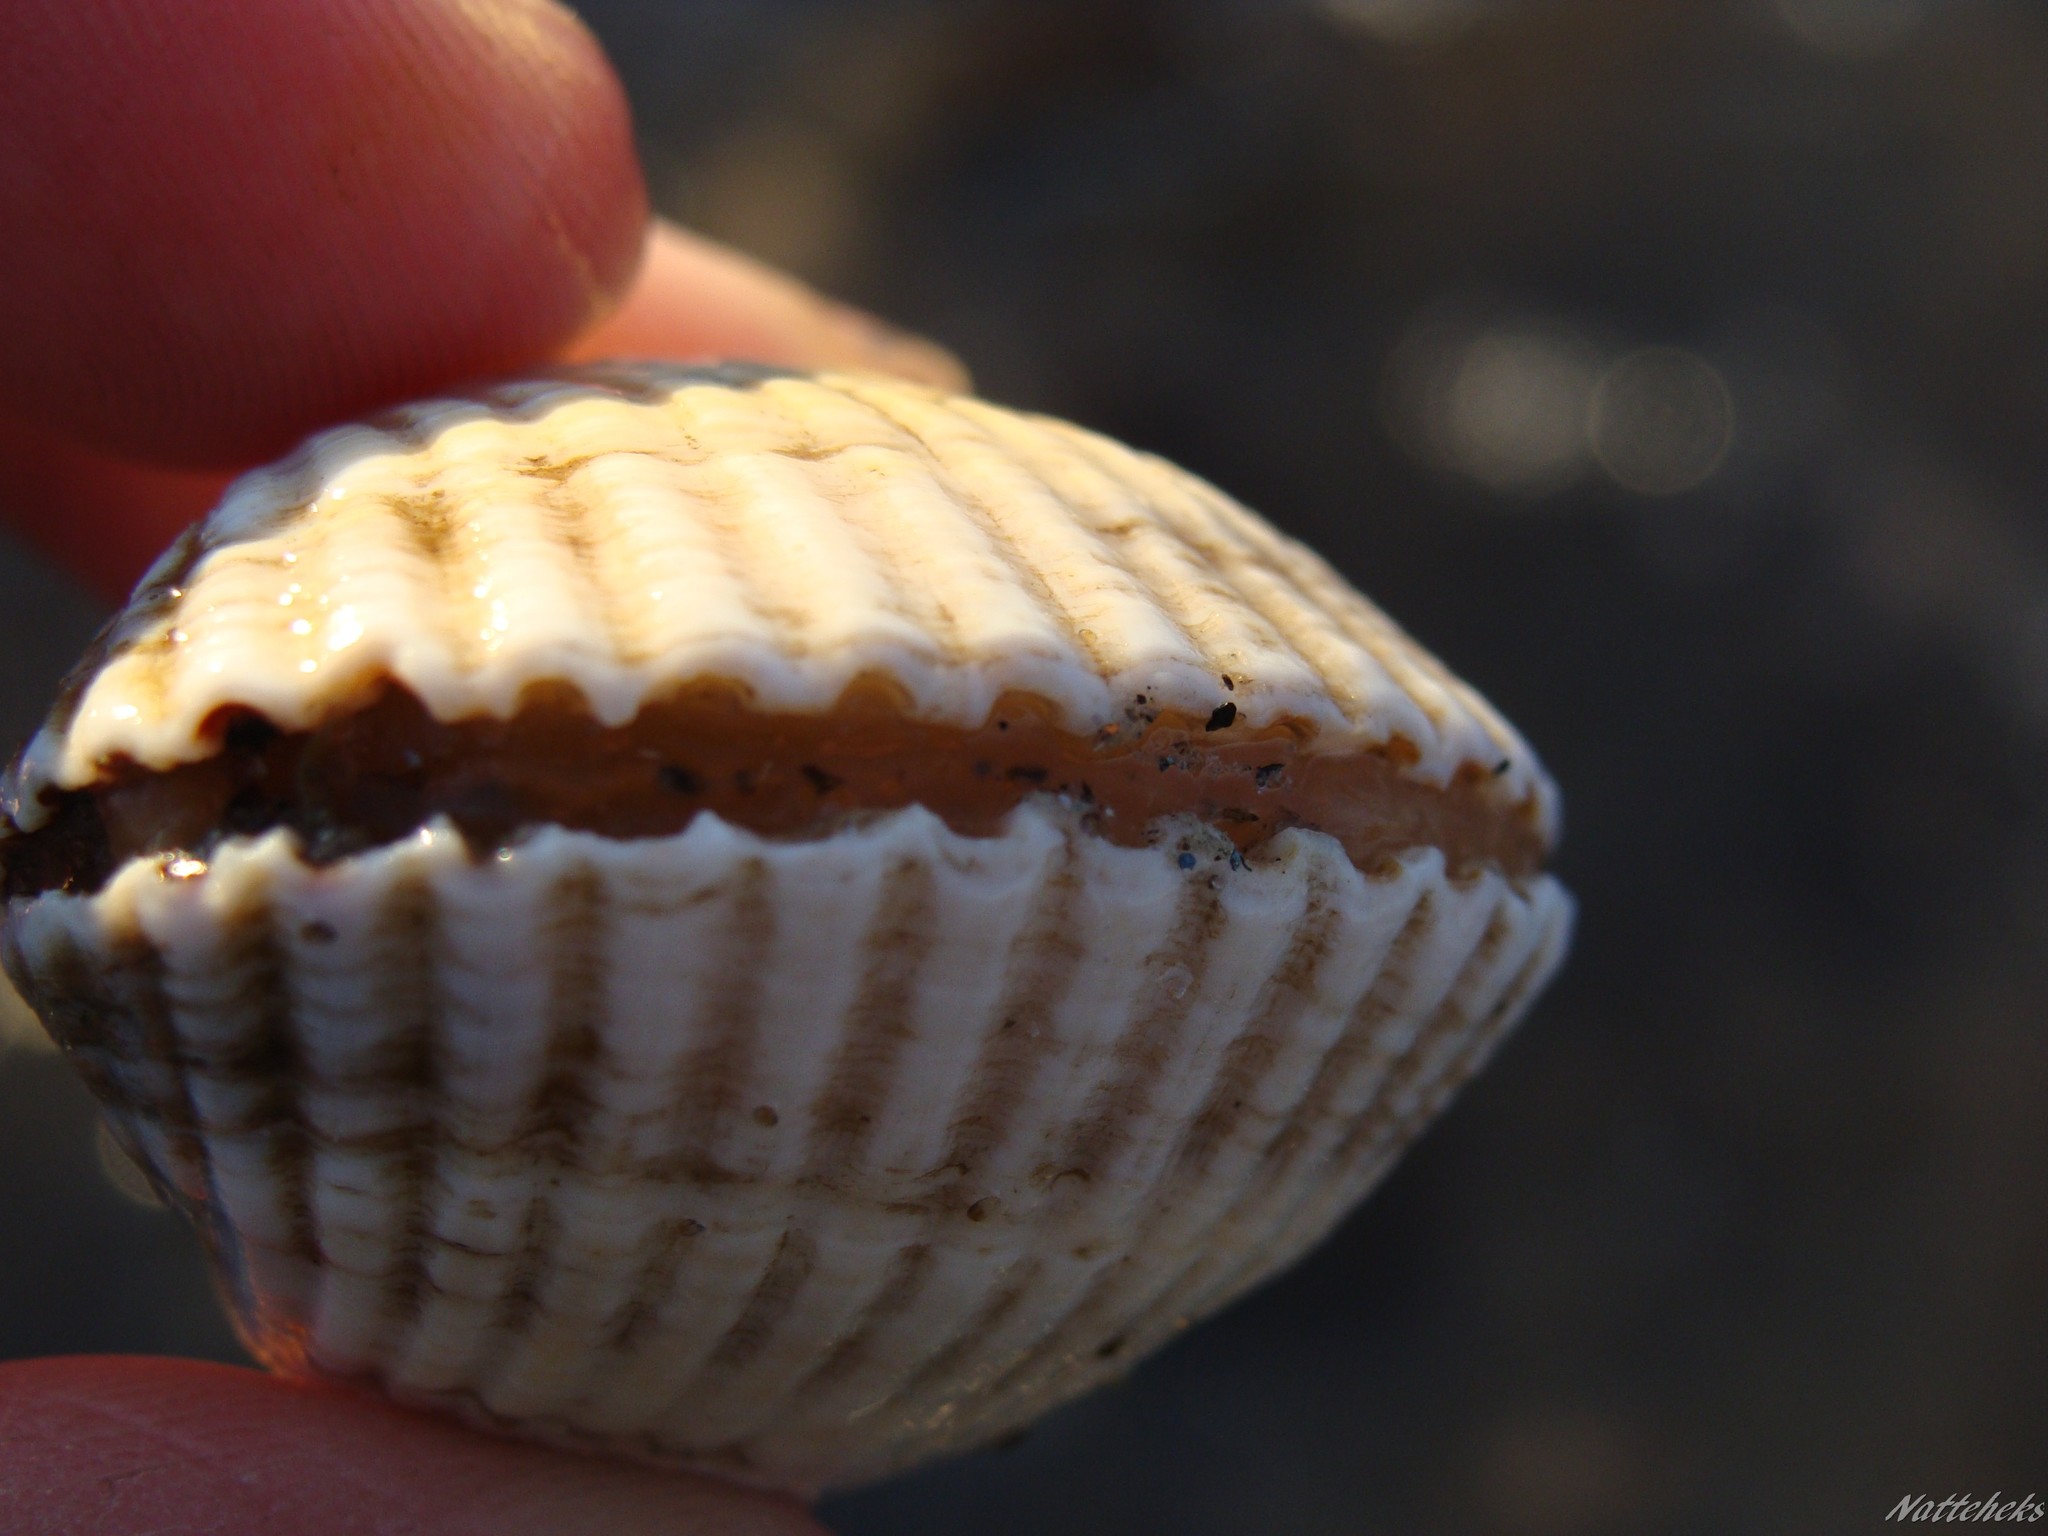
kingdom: Animalia
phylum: Mollusca
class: Bivalvia
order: Cardiida
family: Cardiidae
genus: Cerastoderma
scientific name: Cerastoderma edule
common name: Common cockle
